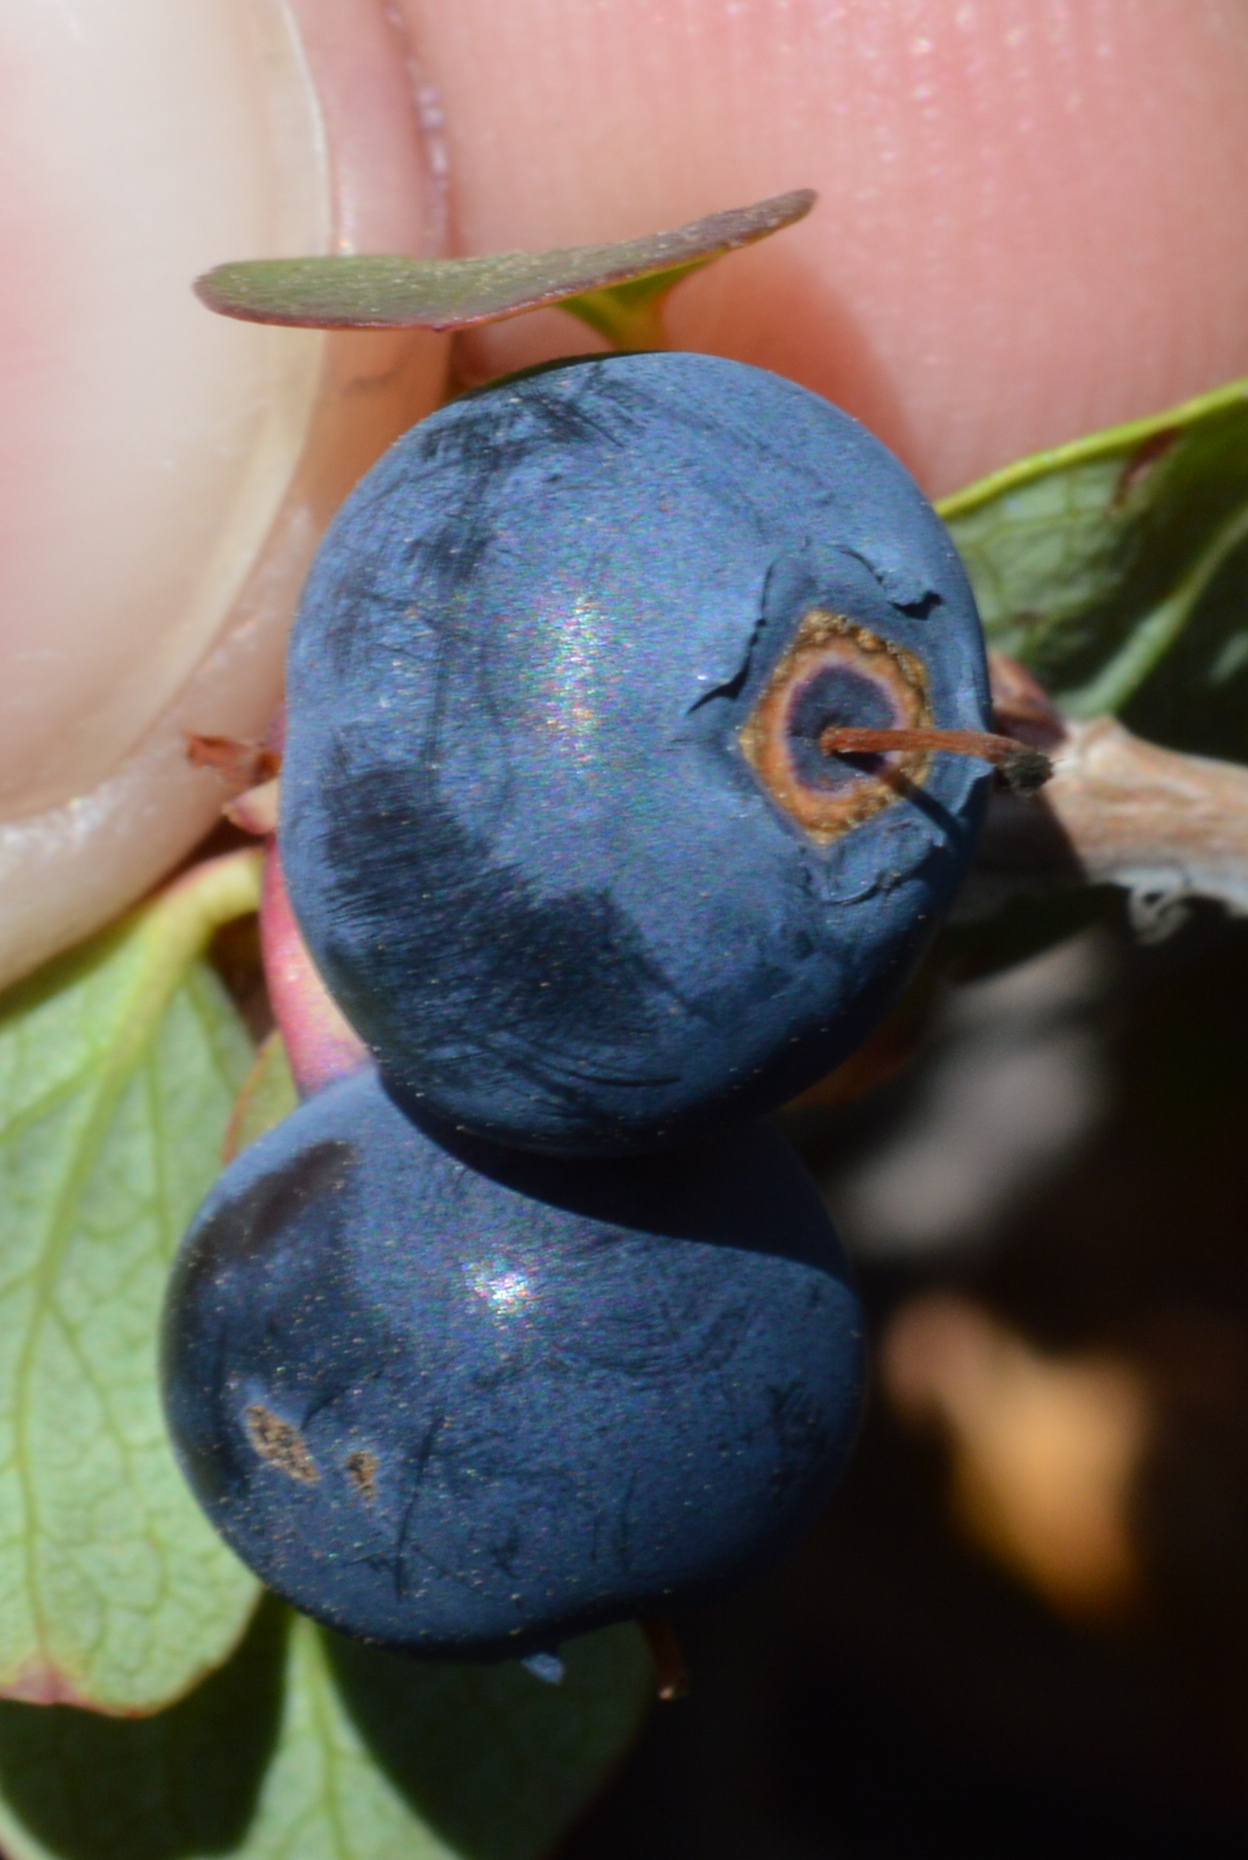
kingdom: Plantae
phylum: Tracheophyta
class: Magnoliopsida
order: Ericales
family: Ericaceae
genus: Vaccinium
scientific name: Vaccinium uliginosum
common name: Bog bilberry
